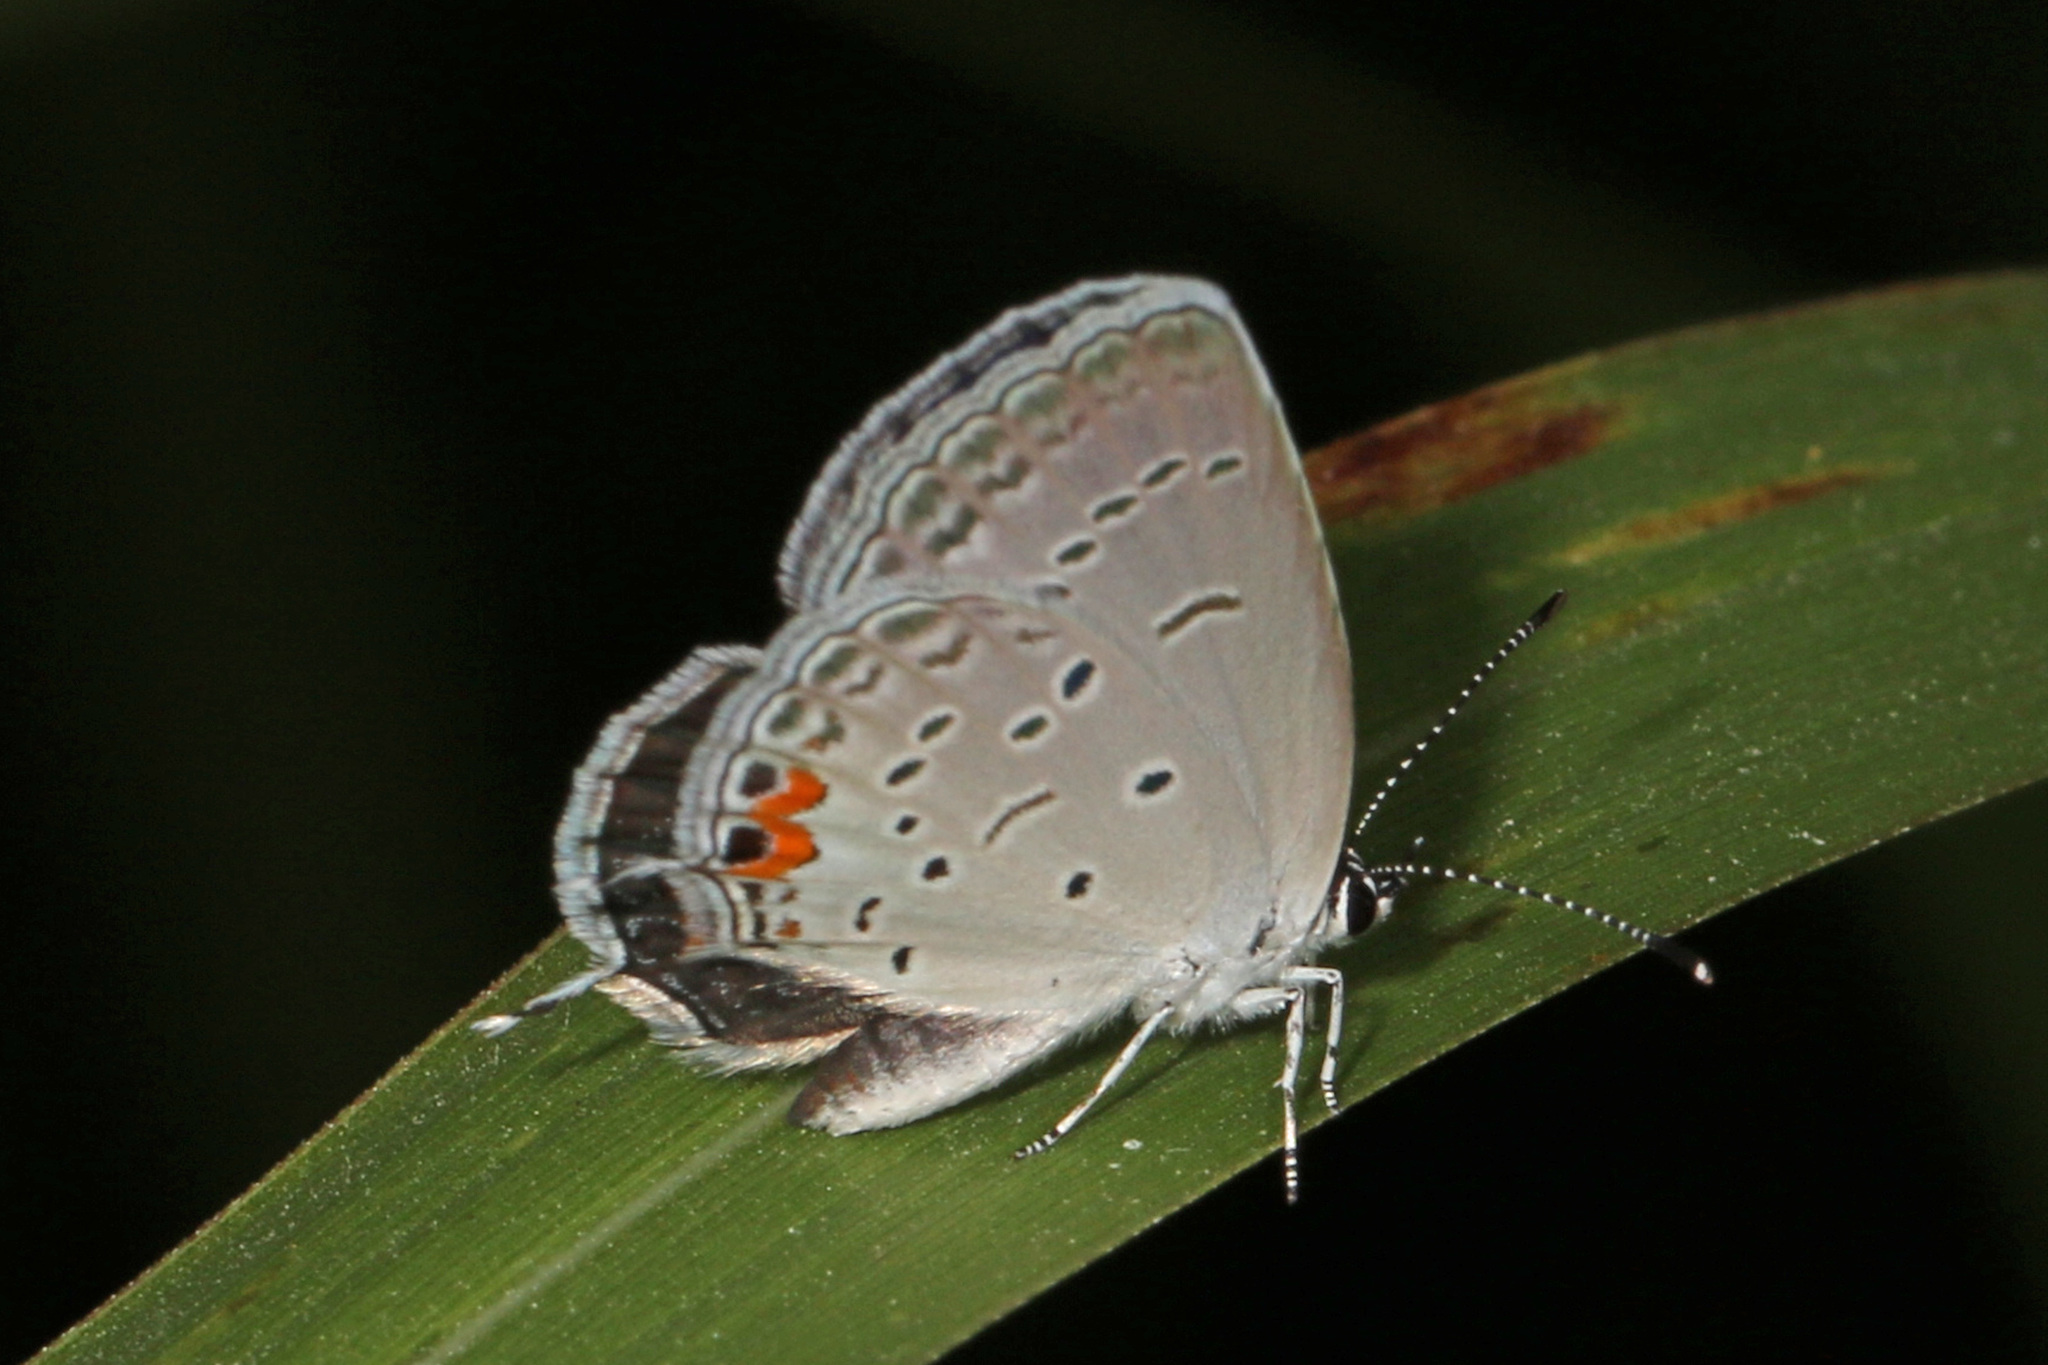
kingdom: Animalia
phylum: Arthropoda
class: Insecta
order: Lepidoptera
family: Lycaenidae
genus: Elkalyce
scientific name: Elkalyce comyntas
